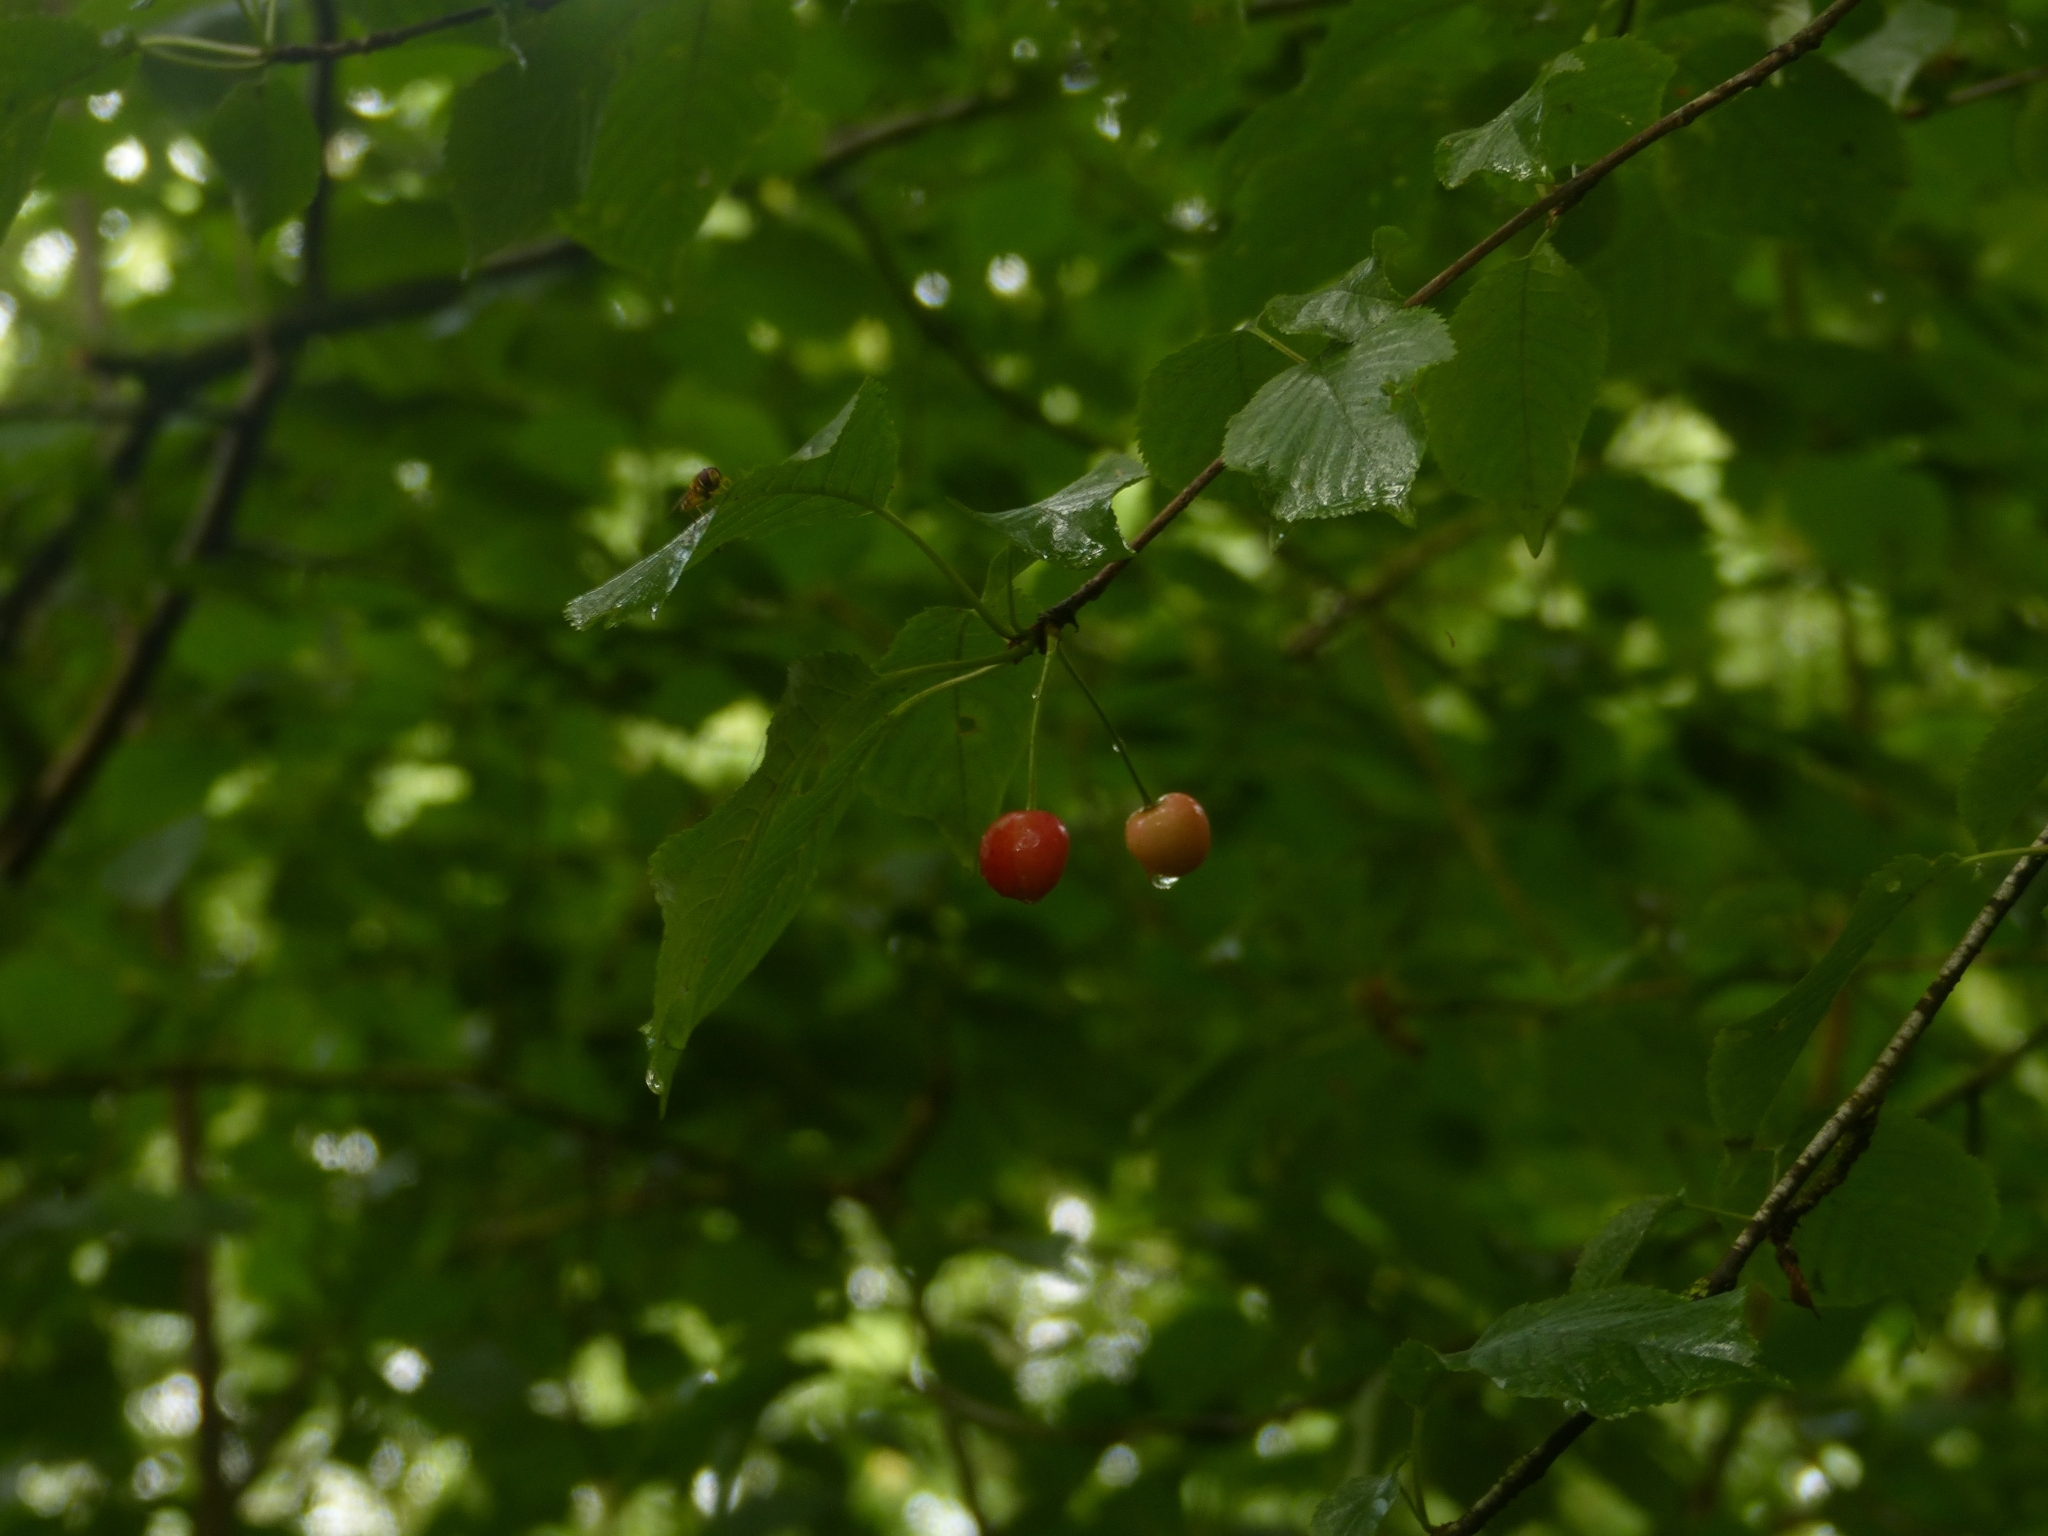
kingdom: Plantae
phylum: Tracheophyta
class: Magnoliopsida
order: Rosales
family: Rosaceae
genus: Prunus
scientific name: Prunus avium
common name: Sweet cherry
